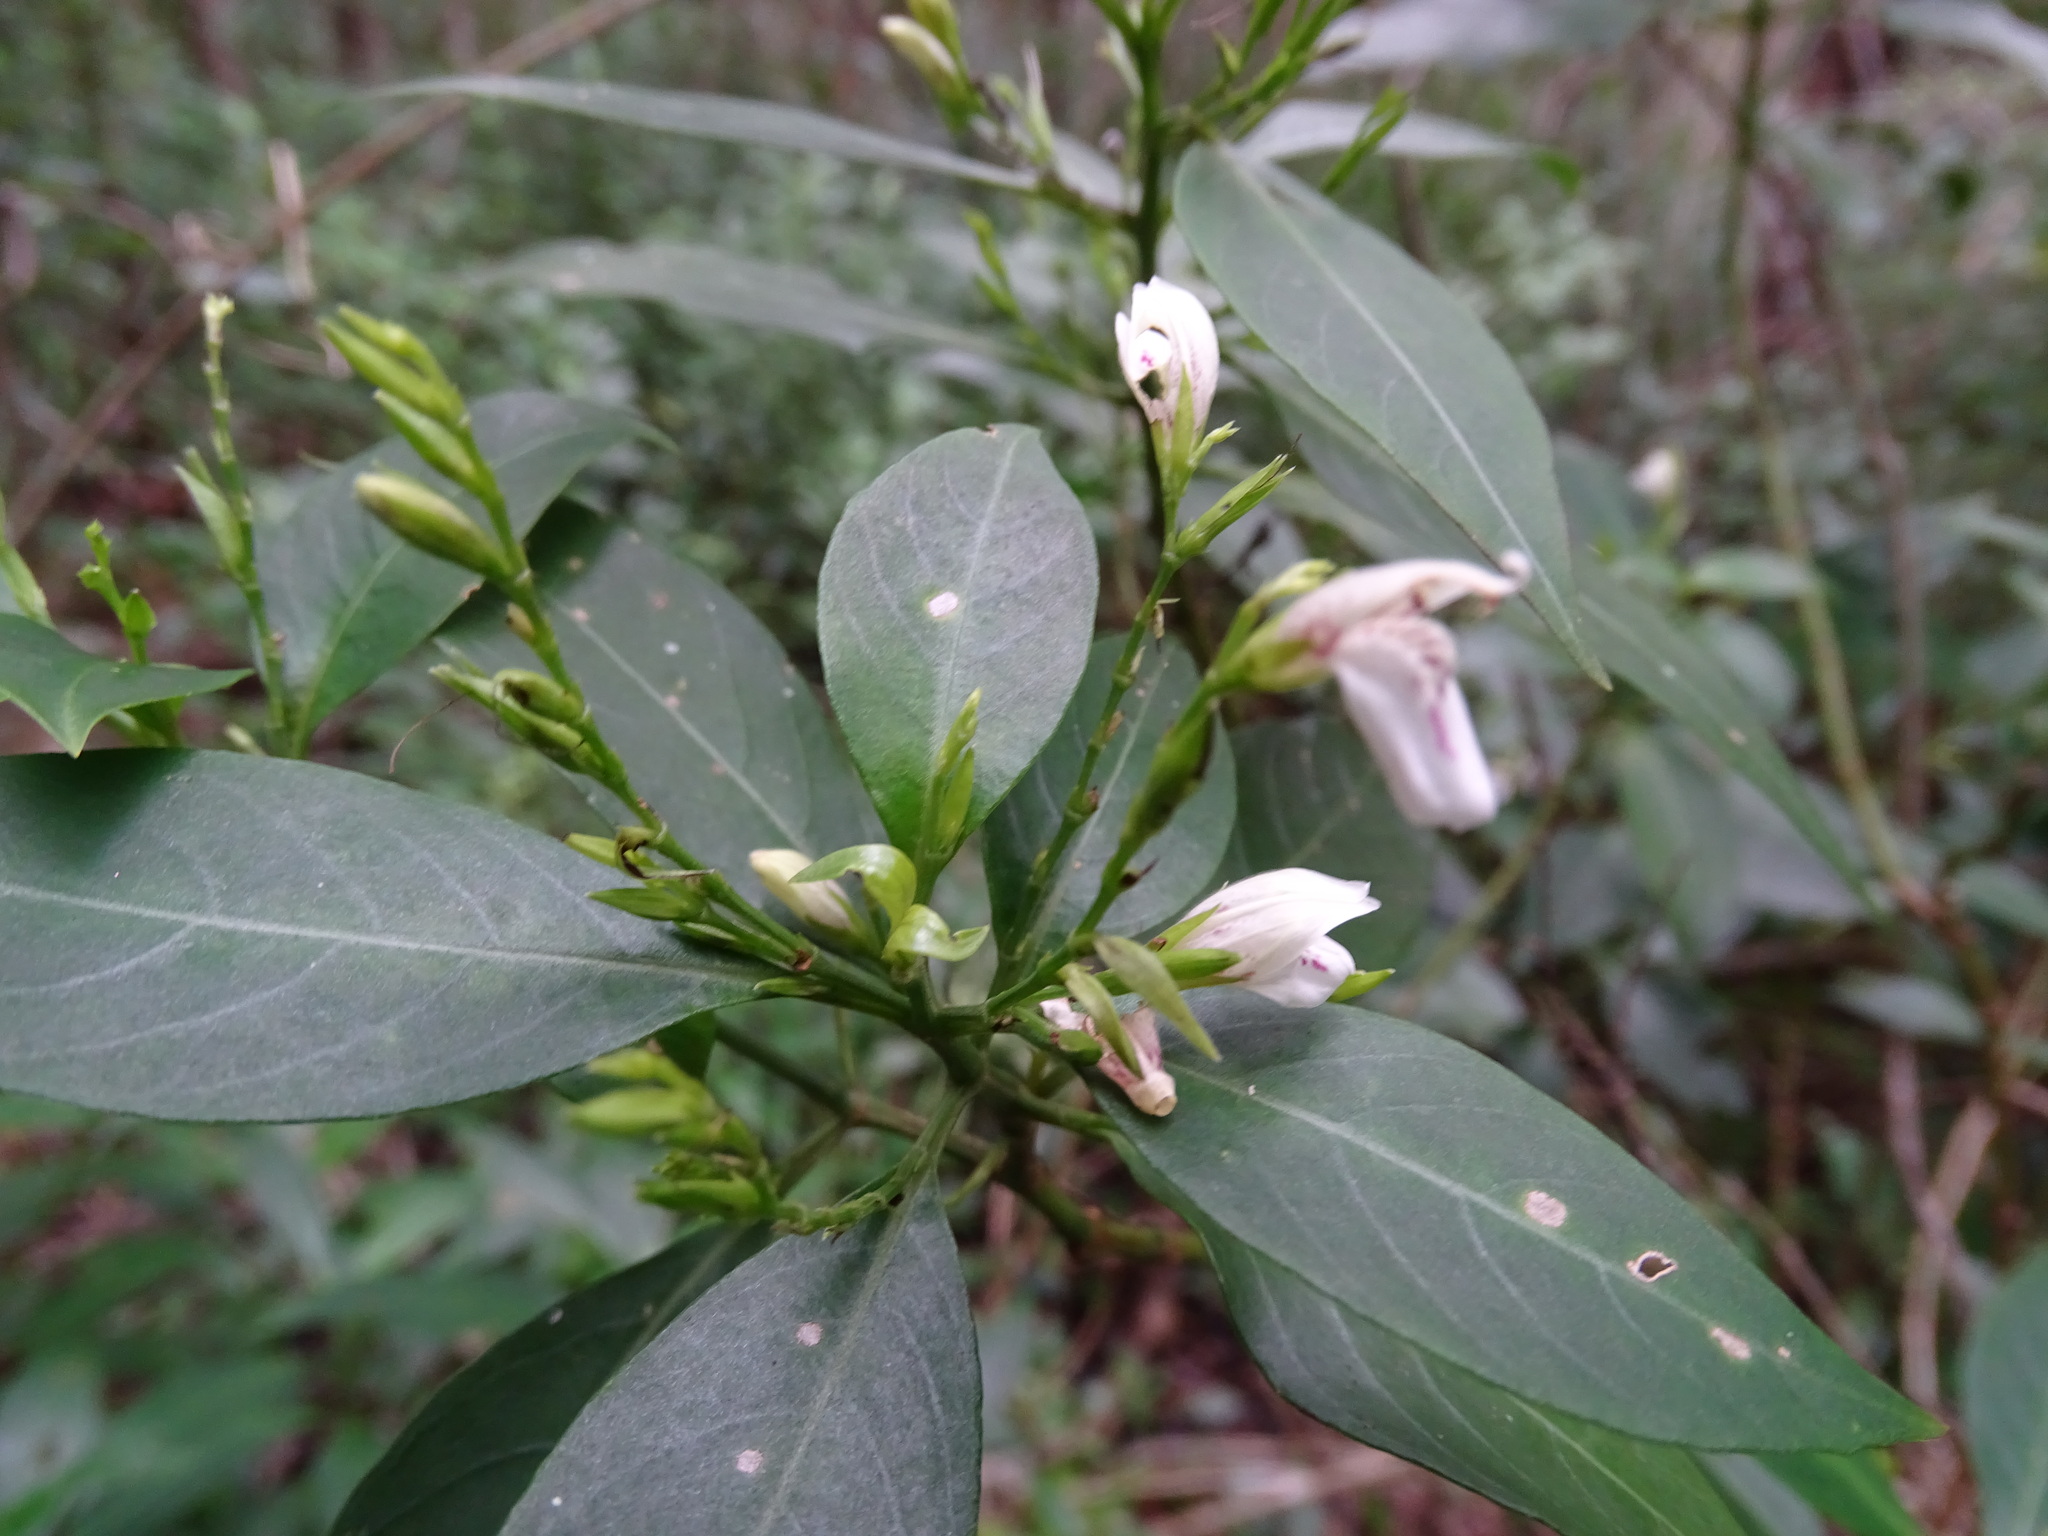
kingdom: Plantae
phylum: Tracheophyta
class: Magnoliopsida
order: Lamiales
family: Acanthaceae
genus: Justicia
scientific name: Justicia campechiana
